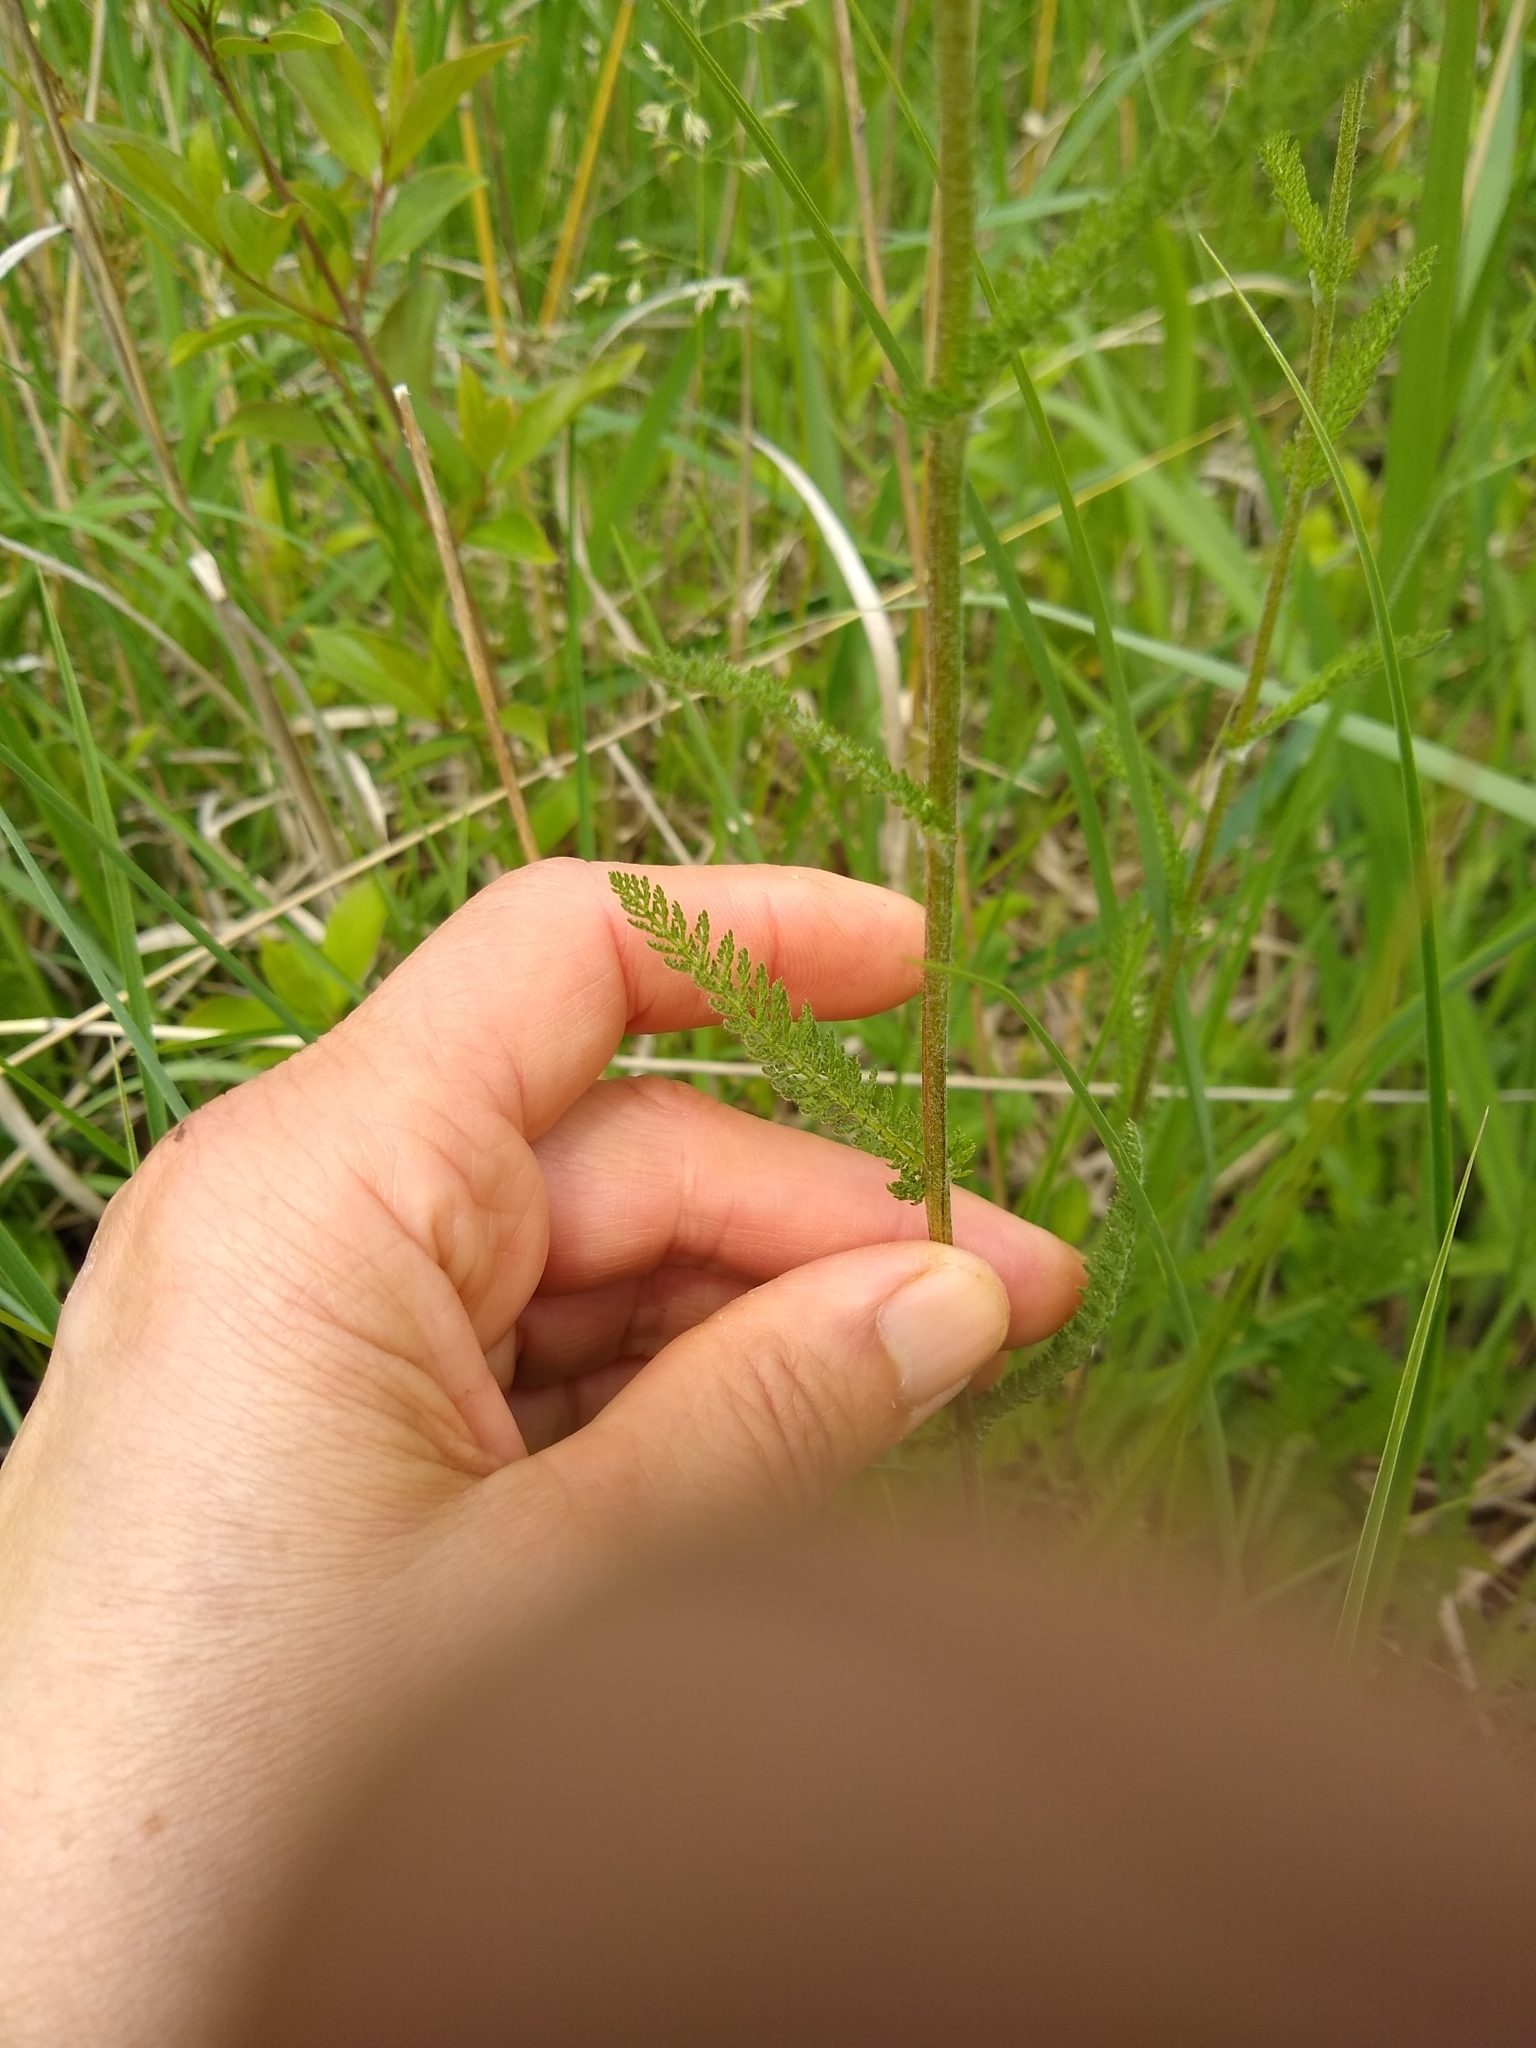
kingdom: Plantae
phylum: Tracheophyta
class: Magnoliopsida
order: Asterales
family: Asteraceae
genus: Achillea
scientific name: Achillea millefolium
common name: Yarrow
